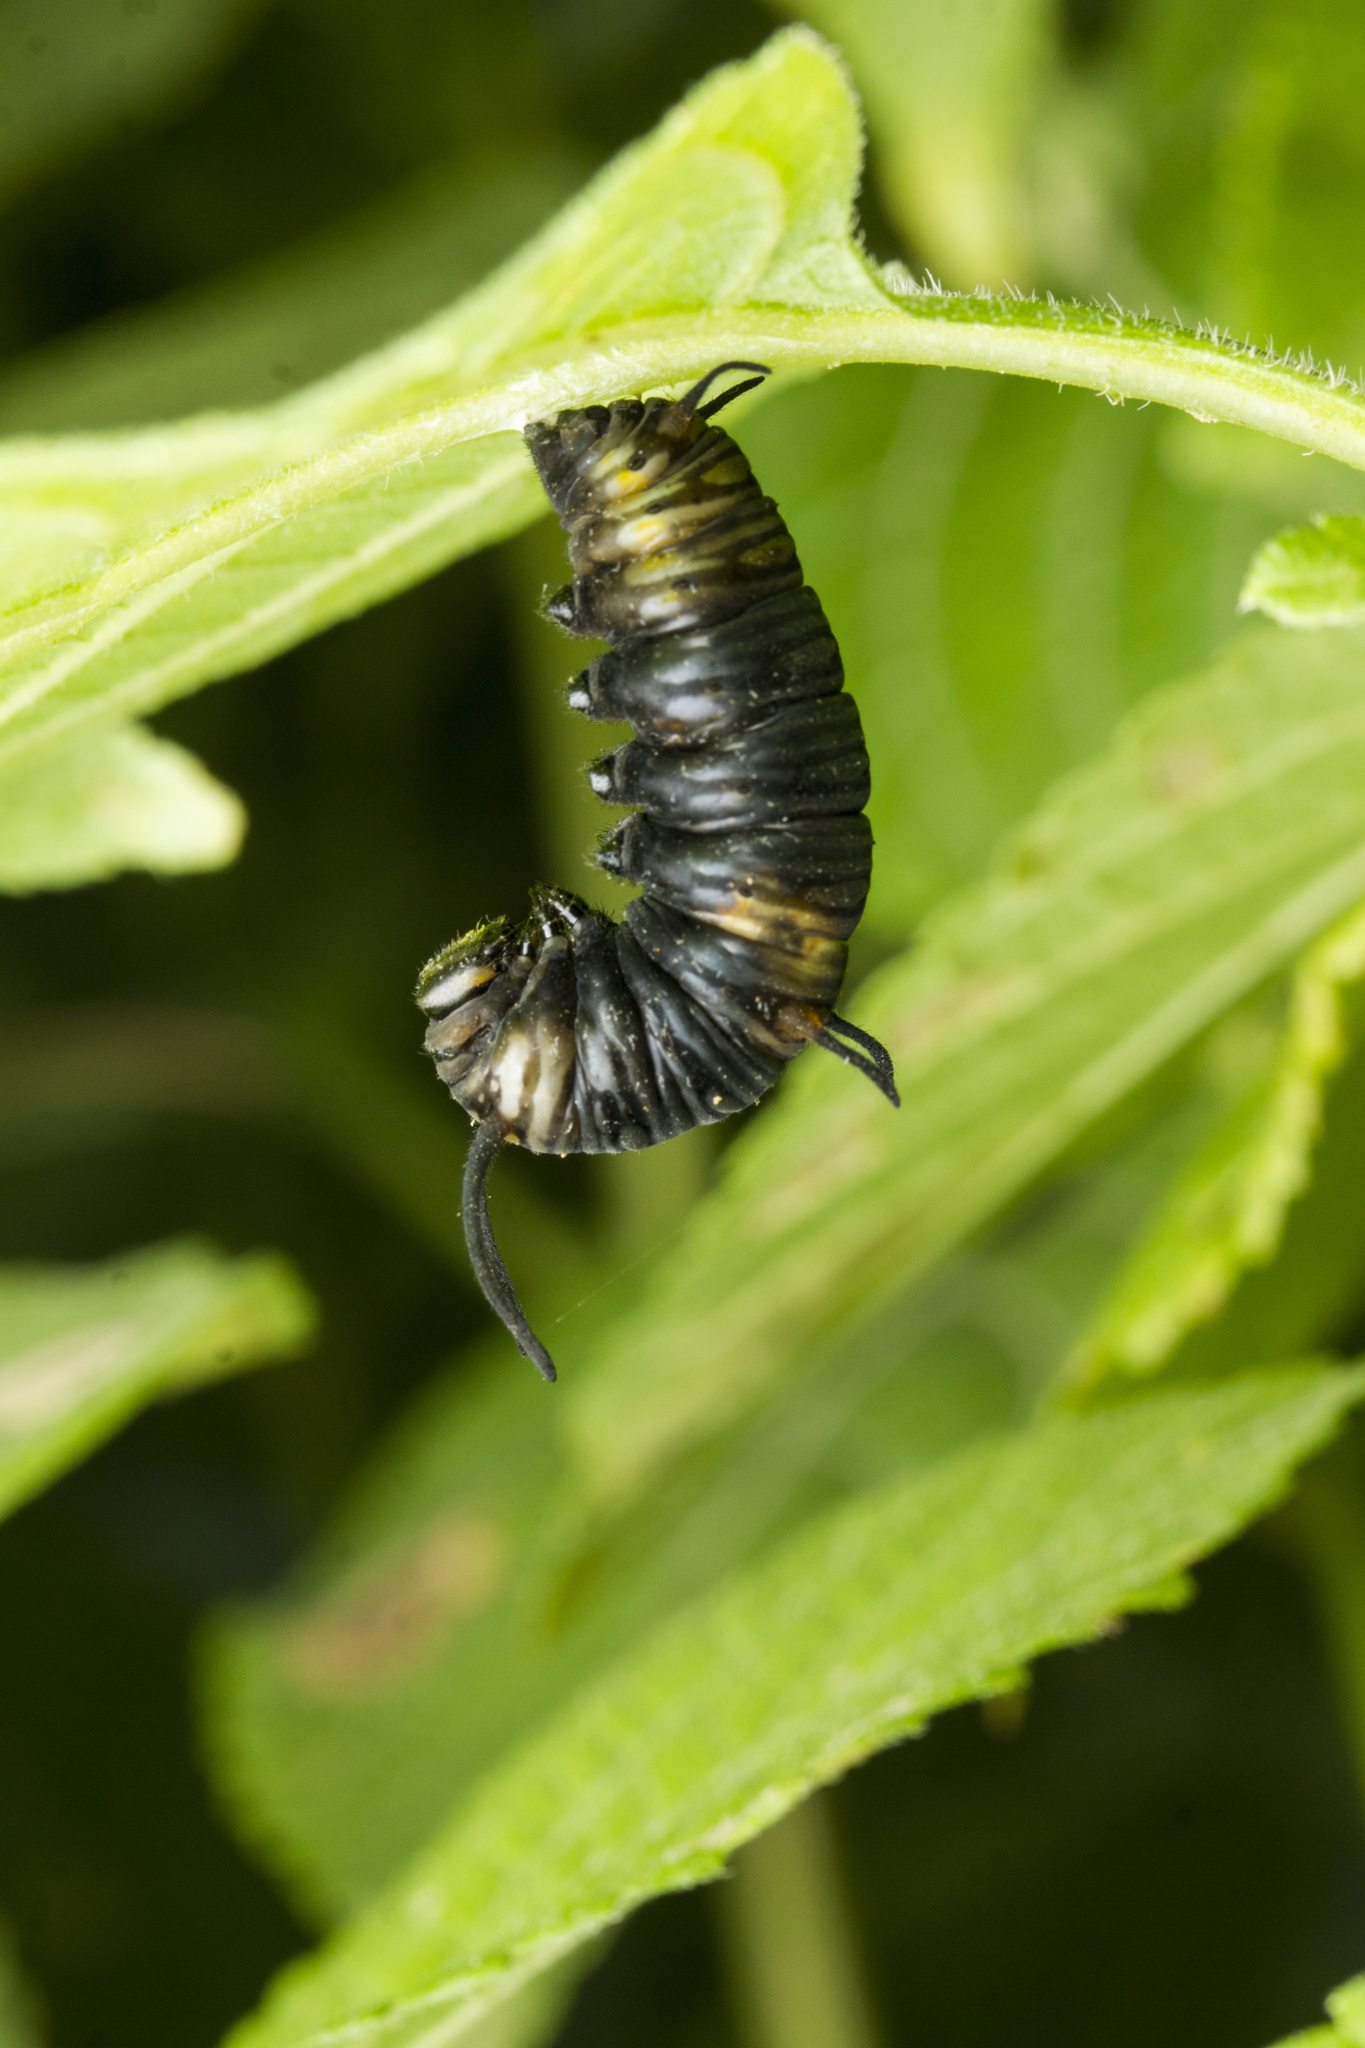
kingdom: Animalia
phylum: Arthropoda
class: Insecta
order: Lepidoptera
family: Nymphalidae
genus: Danaus
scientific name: Danaus chrysippus
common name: Plain tiger
